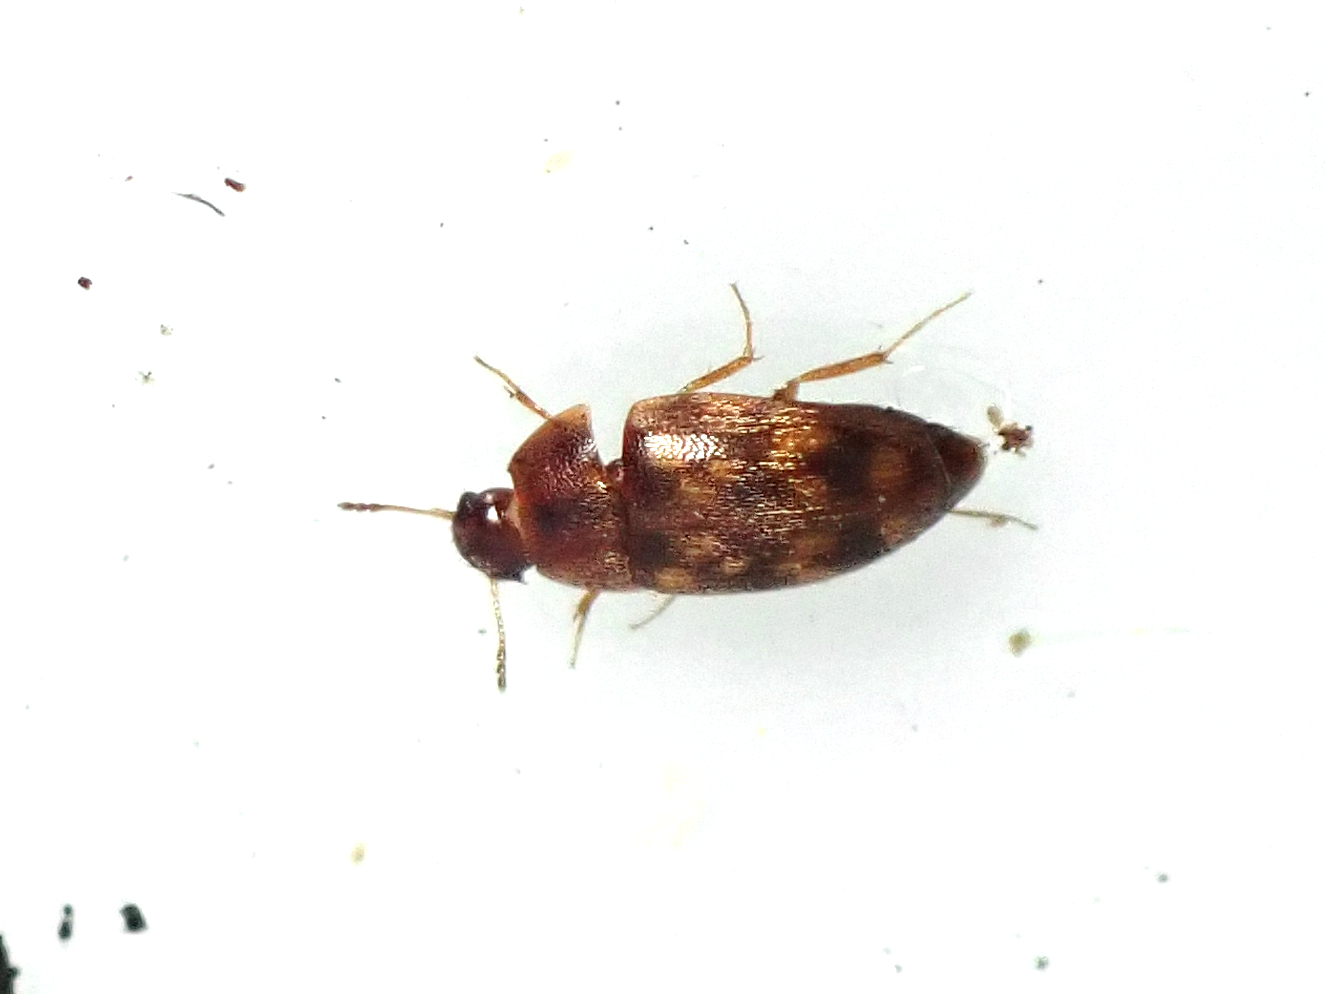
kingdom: Animalia
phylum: Arthropoda
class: Insecta
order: Coleoptera
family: Mycetophagidae
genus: Litargus
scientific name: Litargus vestitus
